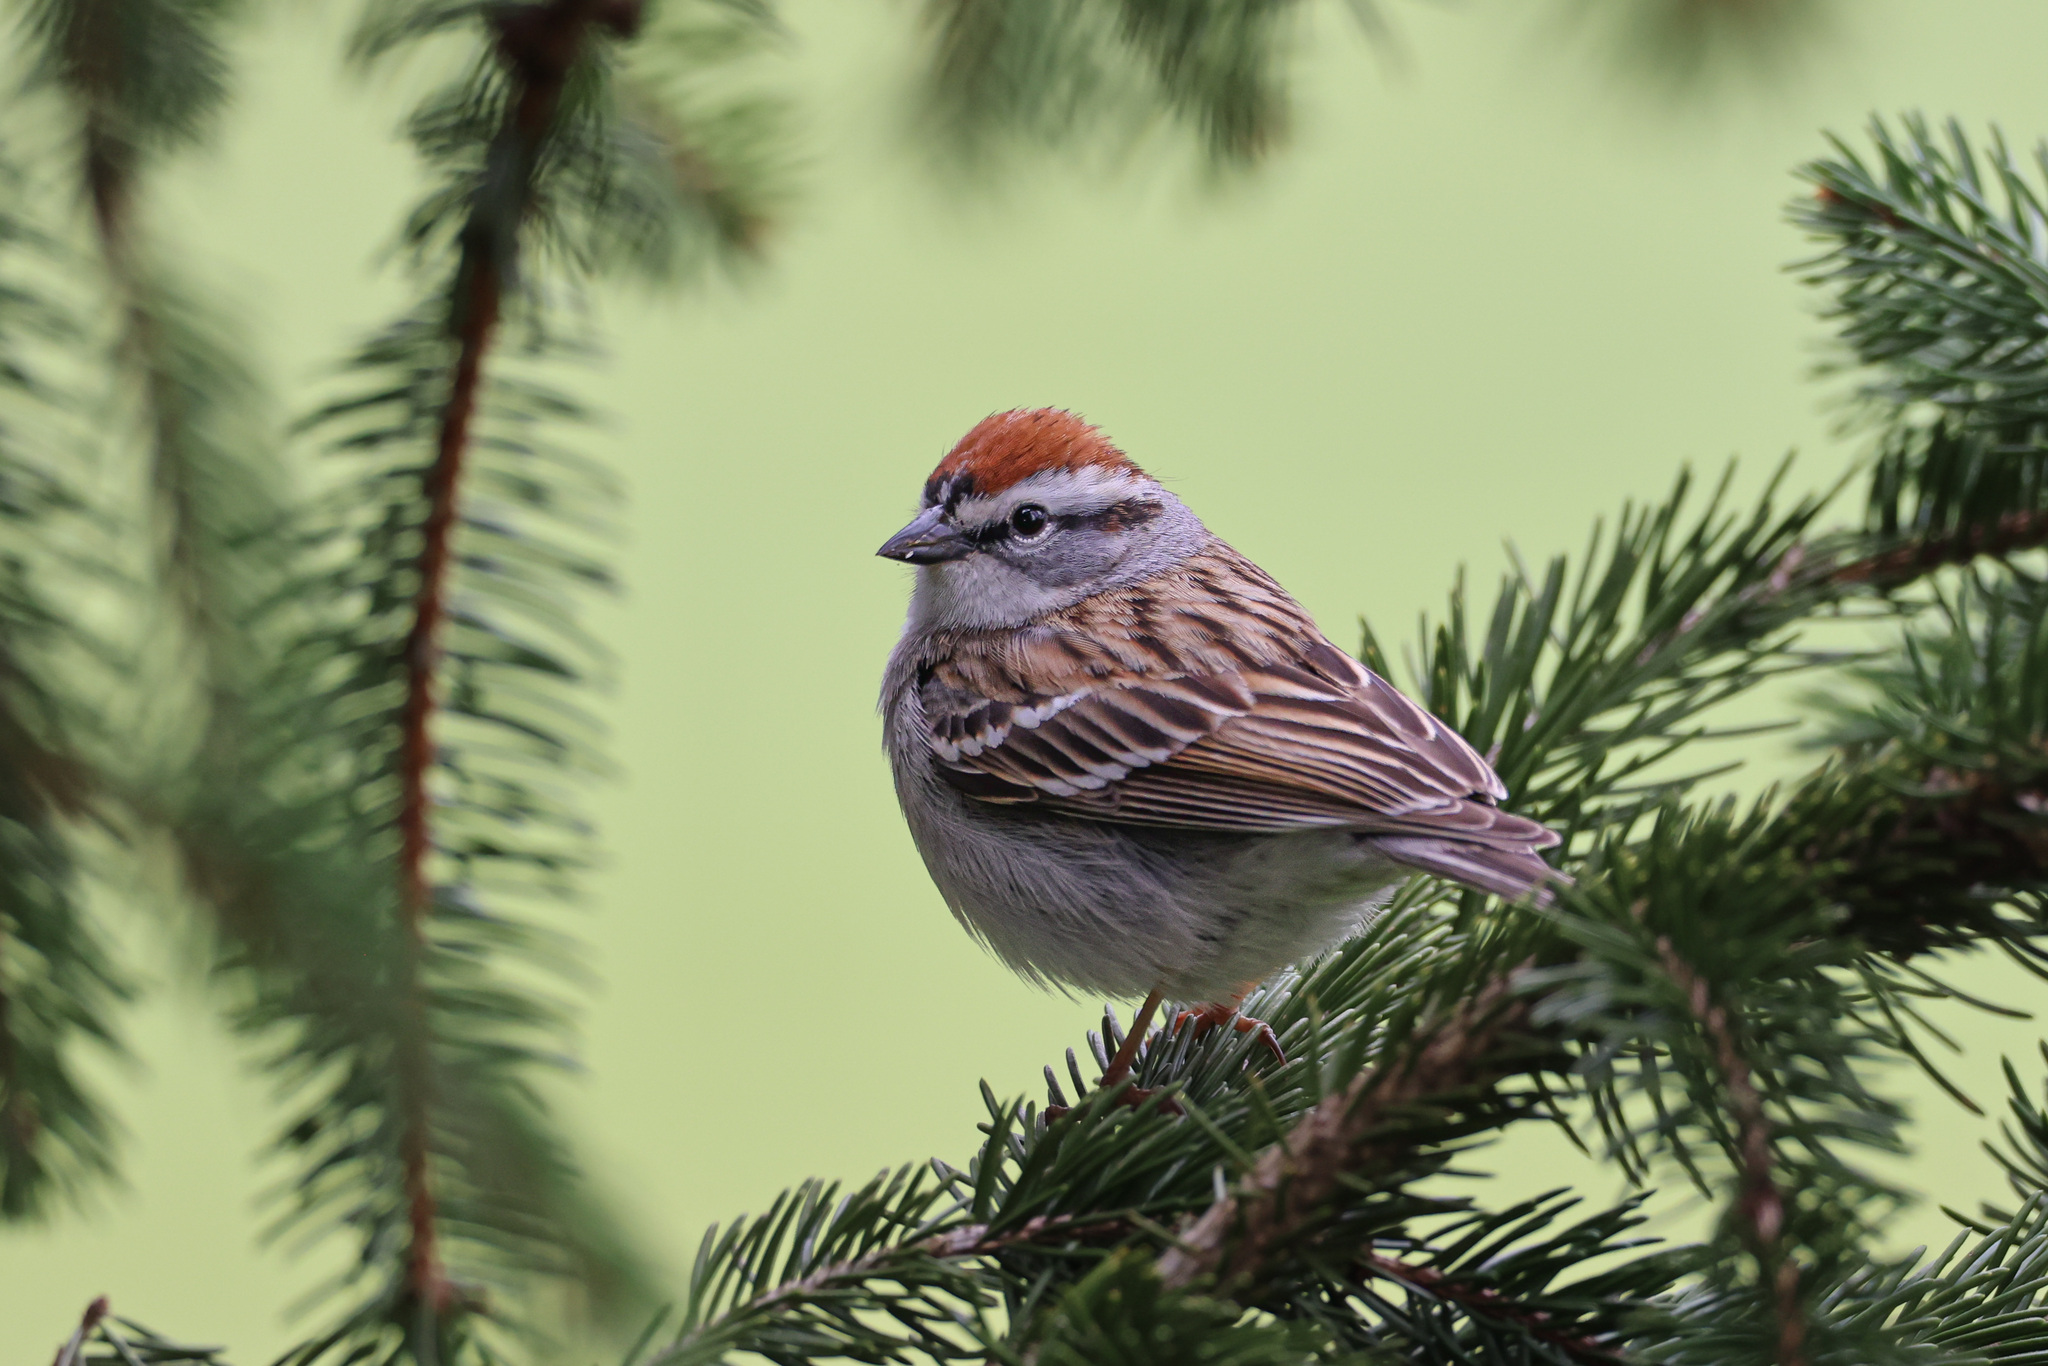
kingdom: Animalia
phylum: Chordata
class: Aves
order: Passeriformes
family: Passerellidae
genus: Spizella
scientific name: Spizella passerina
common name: Chipping sparrow
